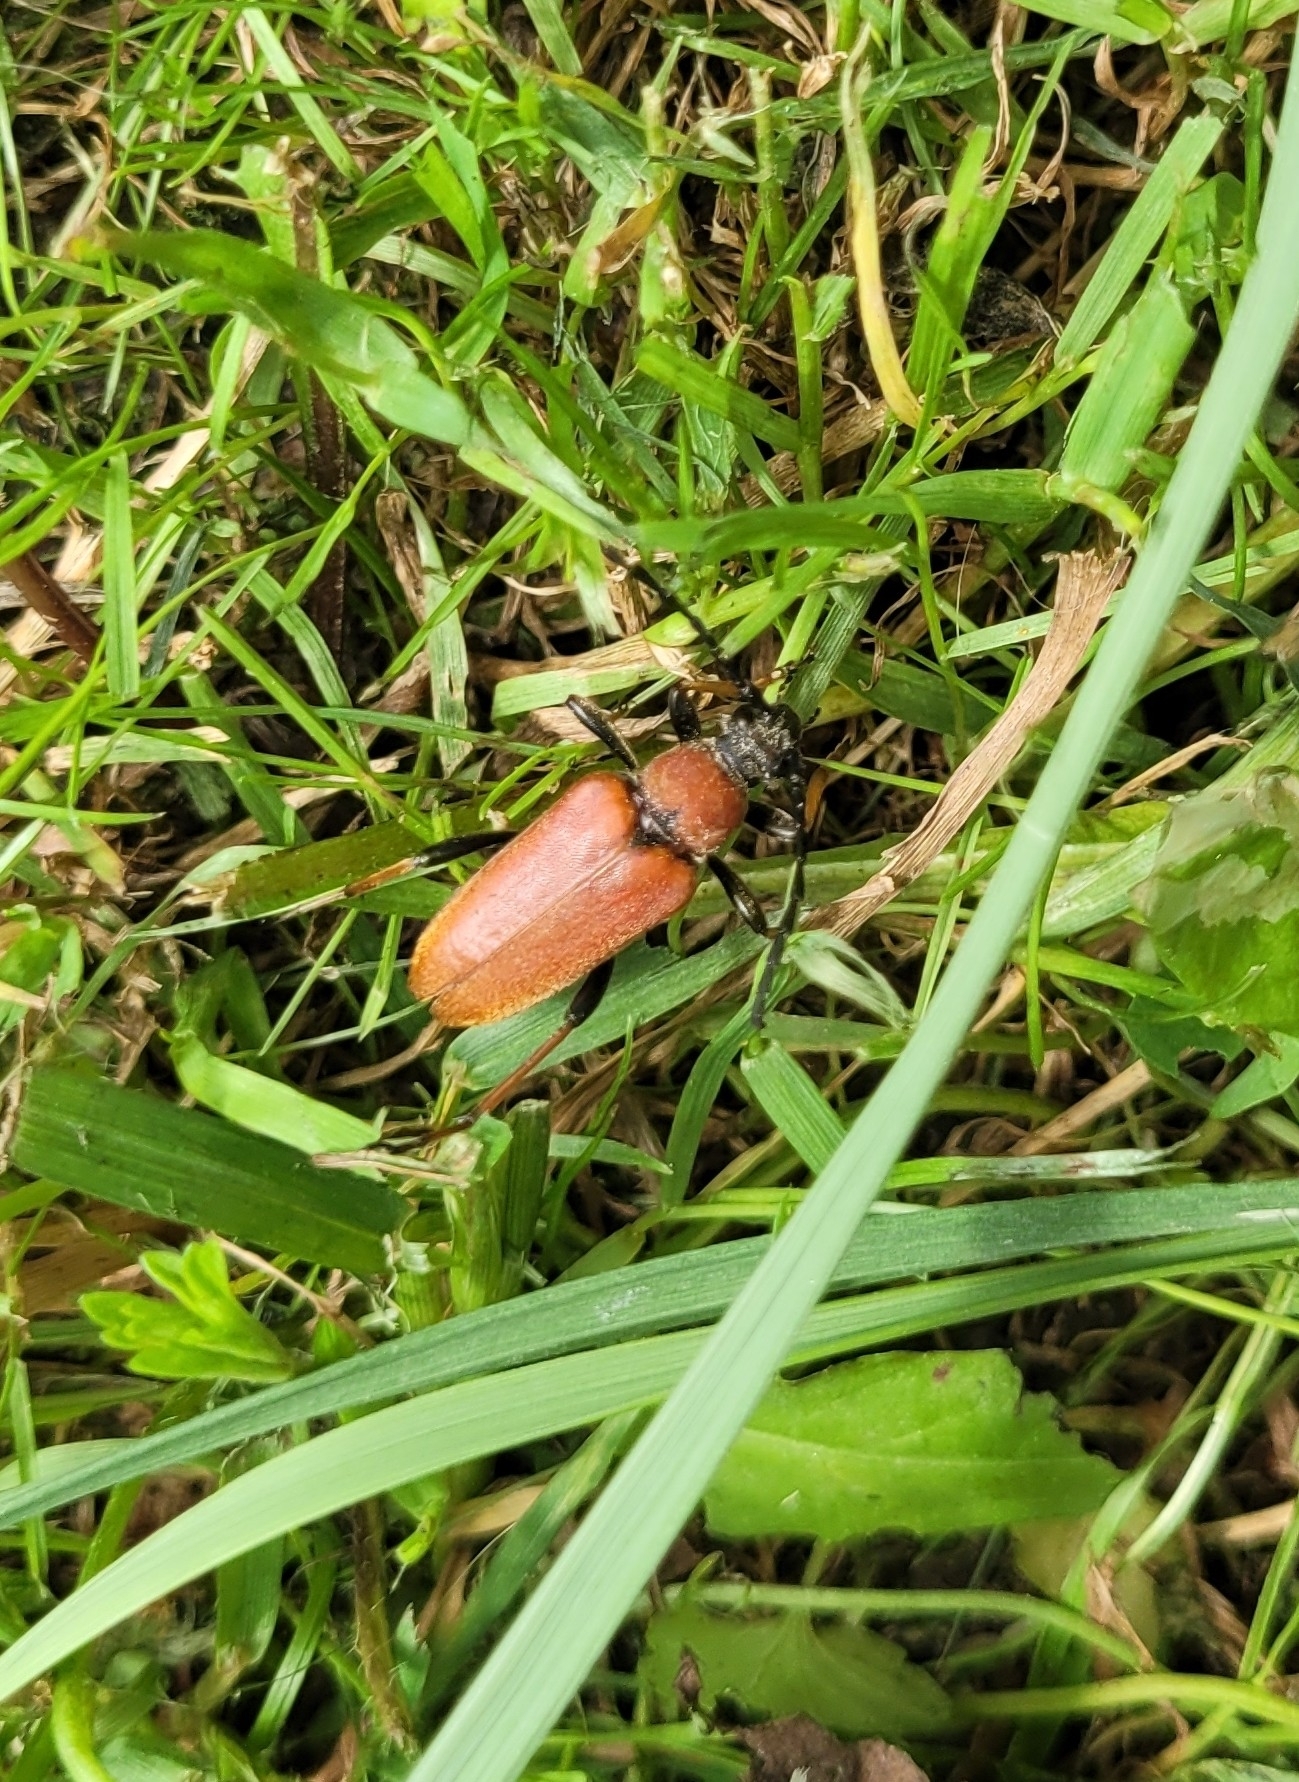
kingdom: Animalia
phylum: Arthropoda
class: Insecta
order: Coleoptera
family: Cerambycidae
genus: Stictoleptura
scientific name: Stictoleptura rubra
